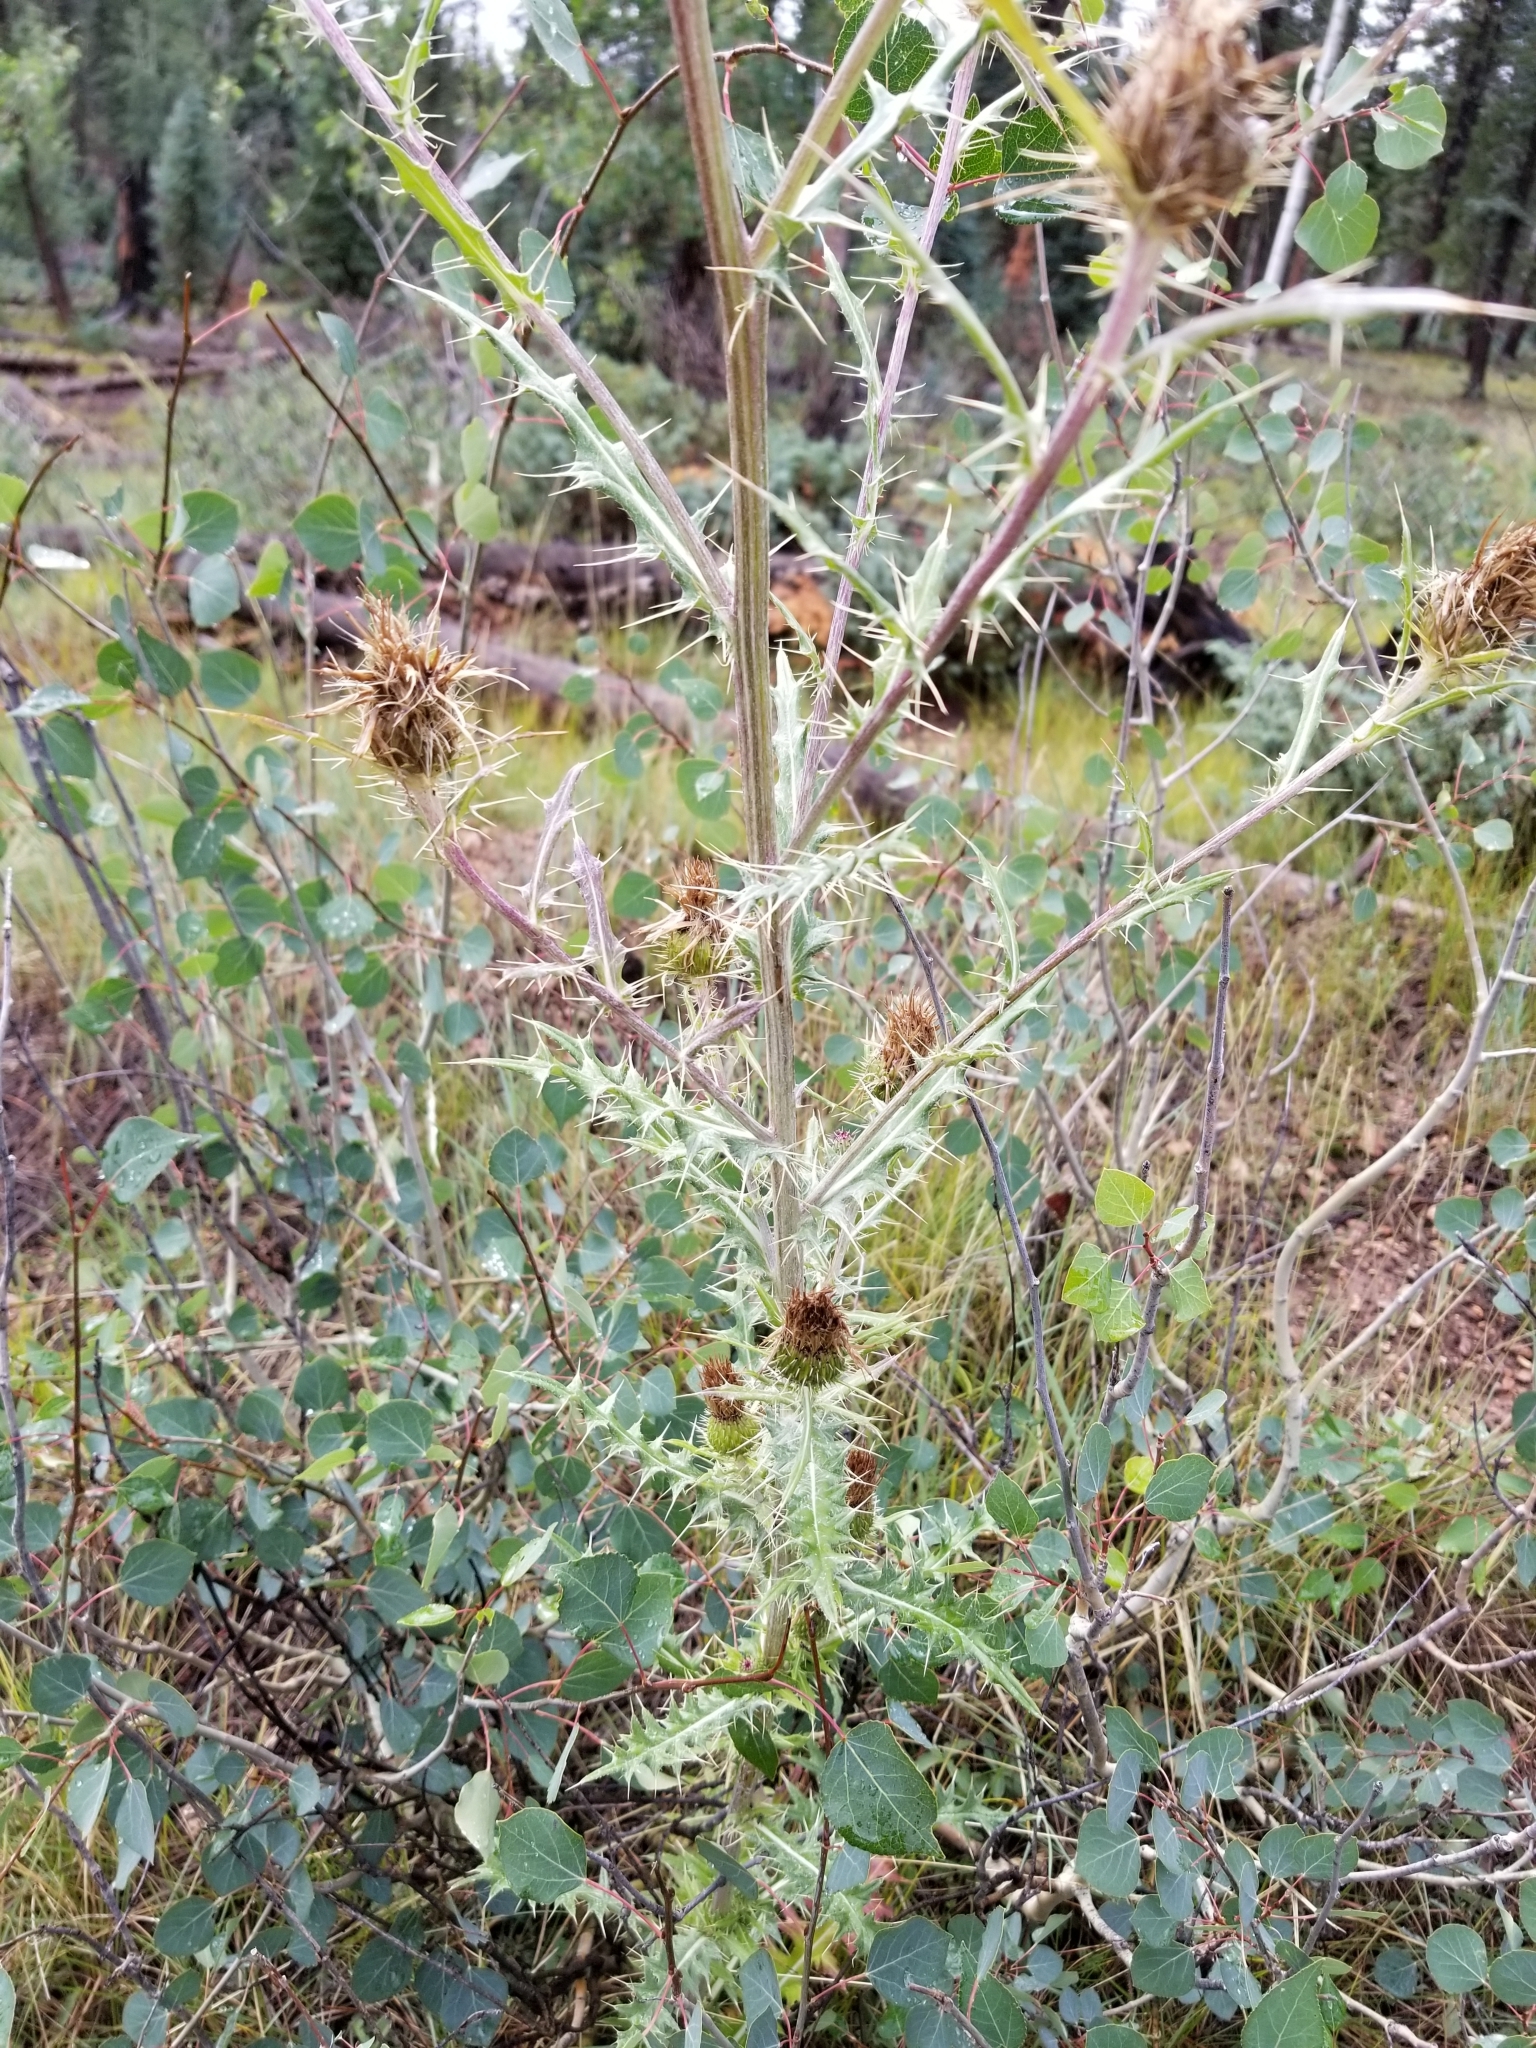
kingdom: Plantae
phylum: Tracheophyta
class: Magnoliopsida
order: Asterales
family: Asteraceae
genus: Cirsium
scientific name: Cirsium wheeleri
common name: Wheeler's thistle
